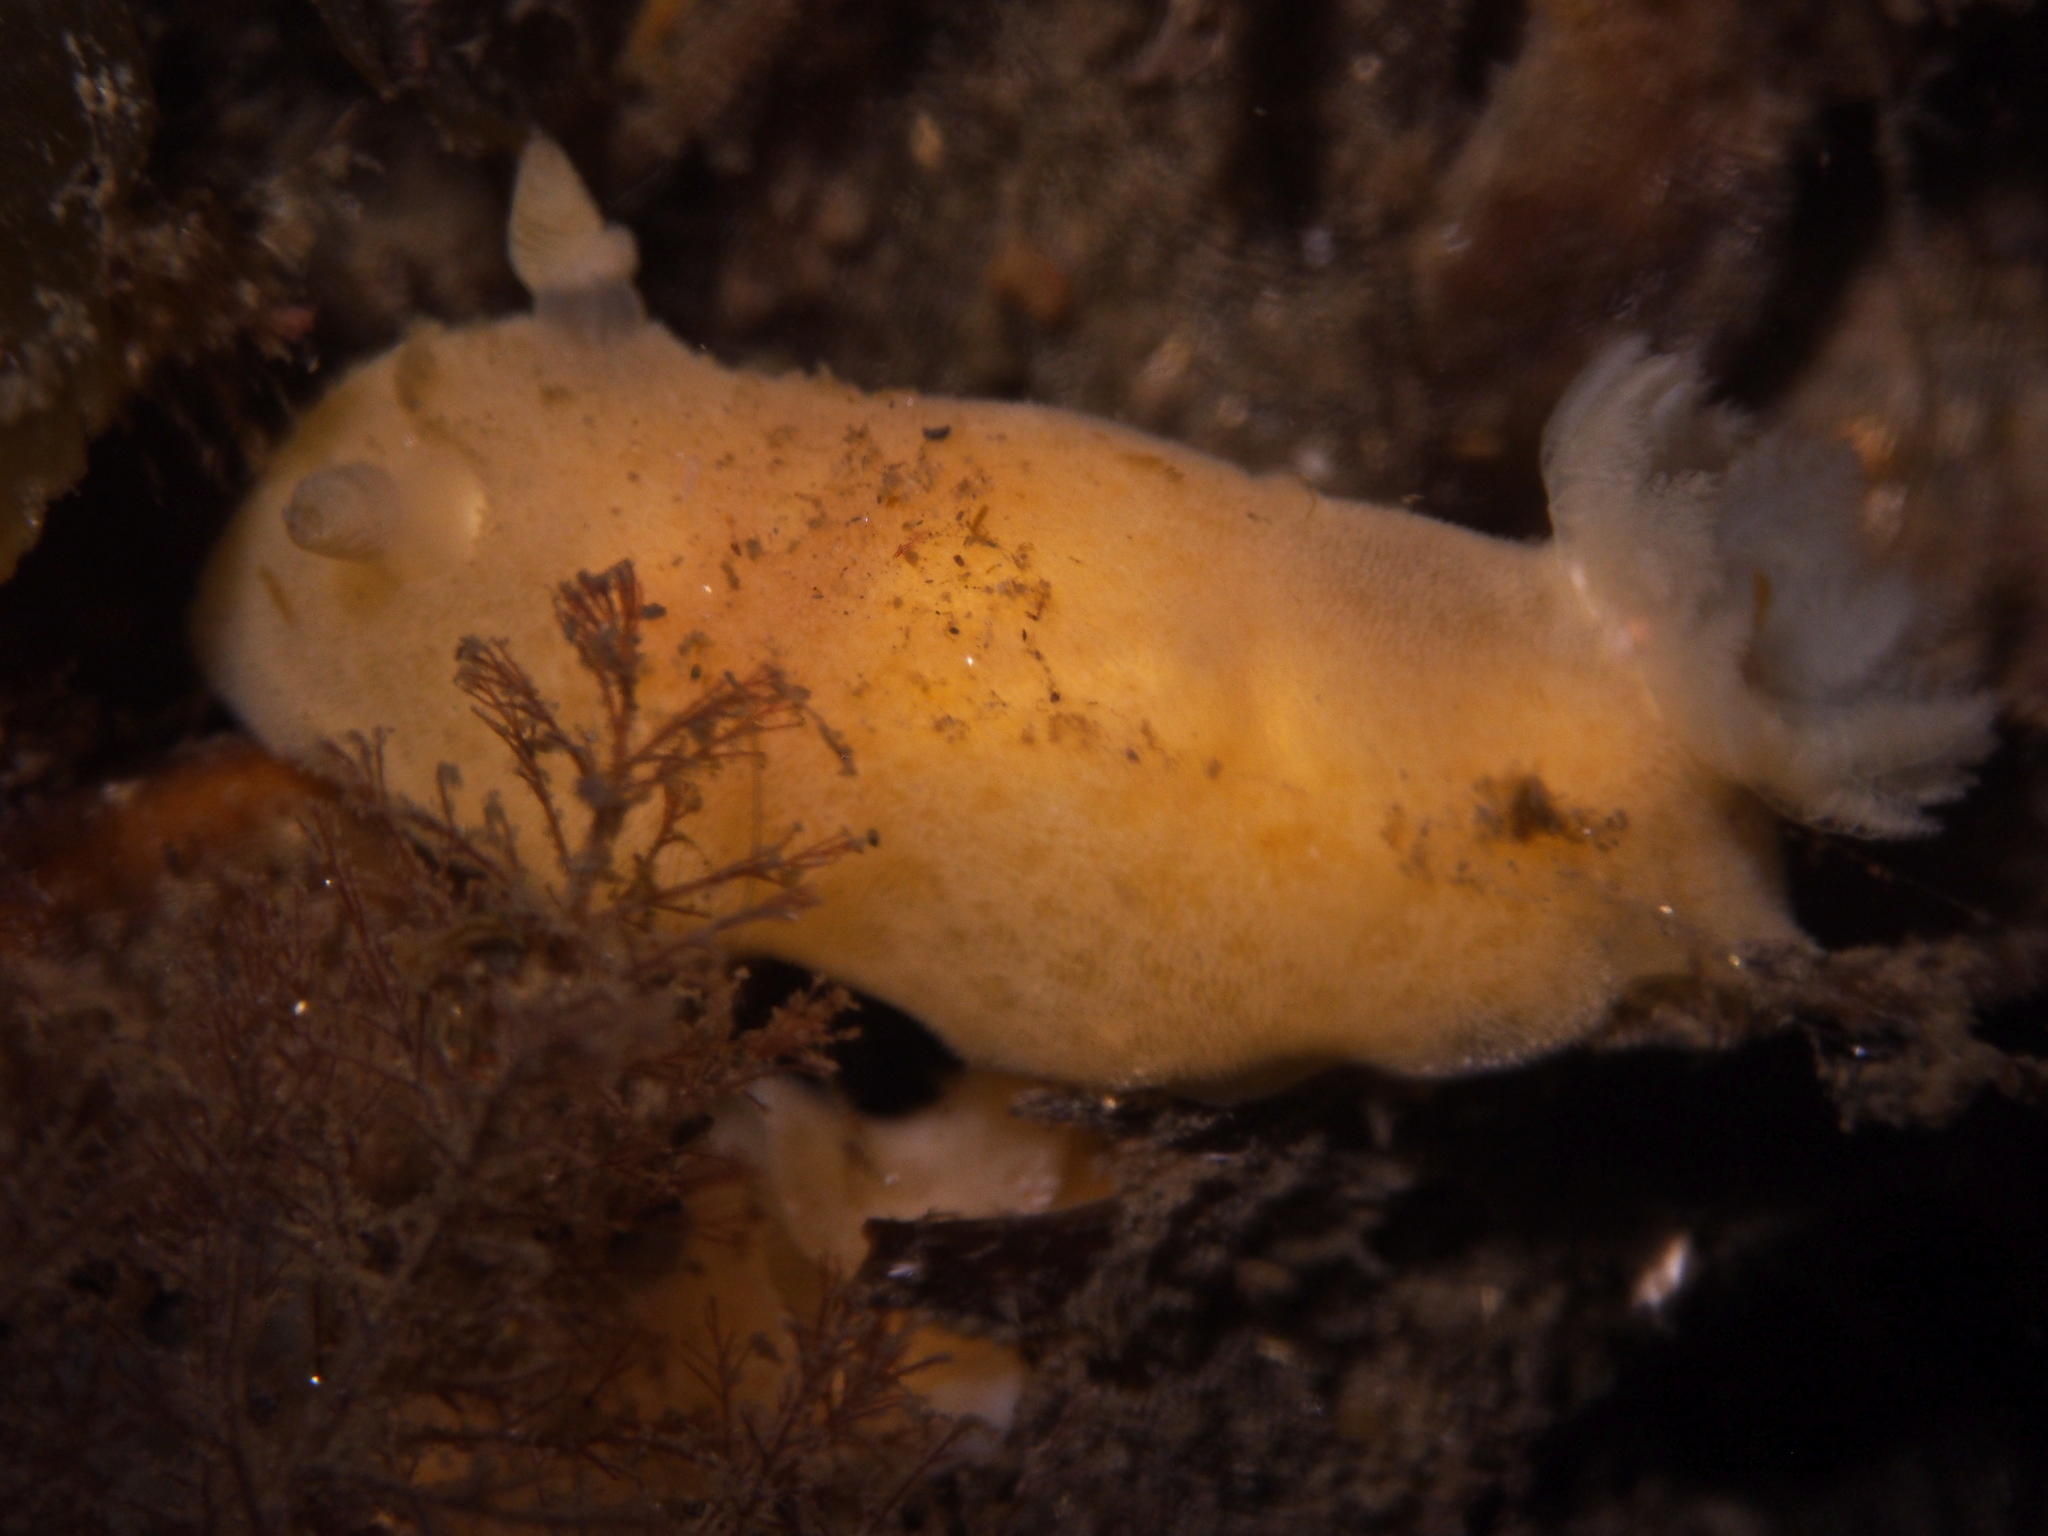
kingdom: Animalia
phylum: Mollusca
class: Gastropoda
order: Nudibranchia
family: Discodorididae
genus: Jorunna
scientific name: Jorunna tomentosa
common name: Grey sea slug
